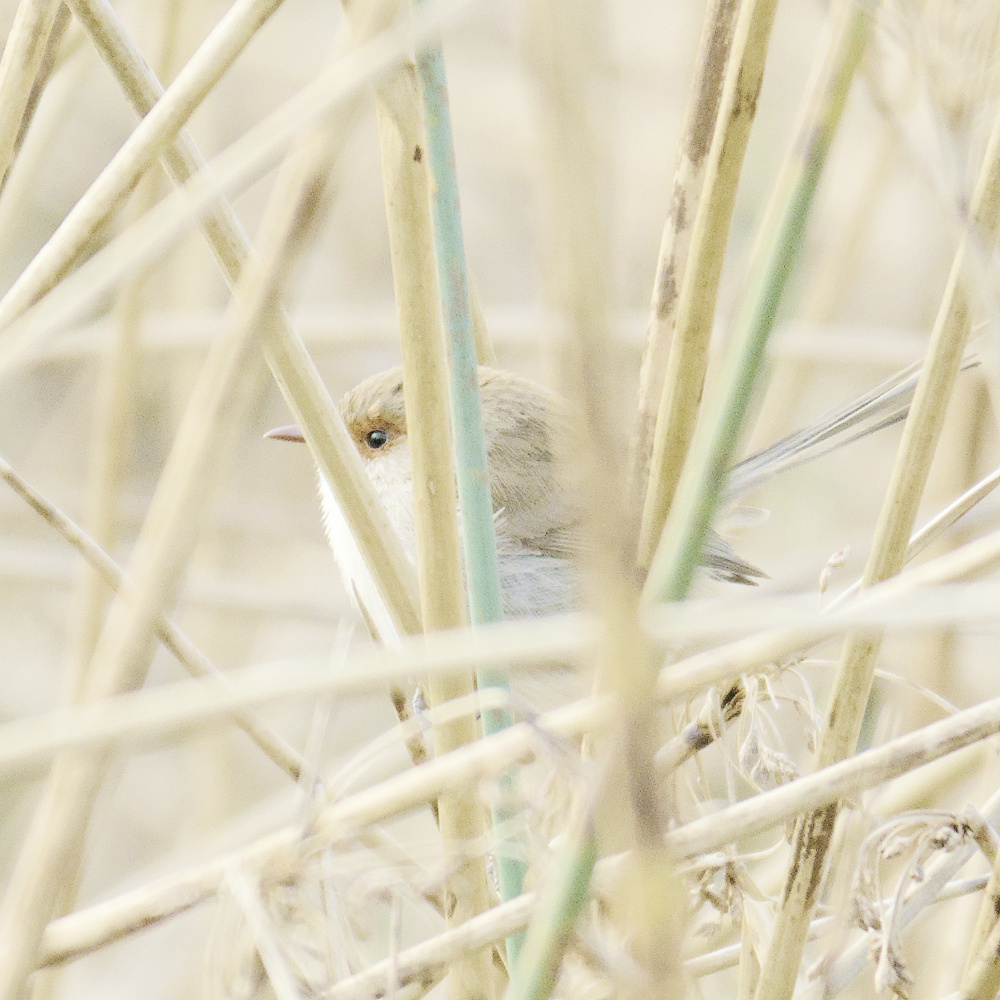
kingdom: Animalia
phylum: Chordata
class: Aves
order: Passeriformes
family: Maluridae
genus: Malurus
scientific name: Malurus cyaneus
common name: Superb fairywren
